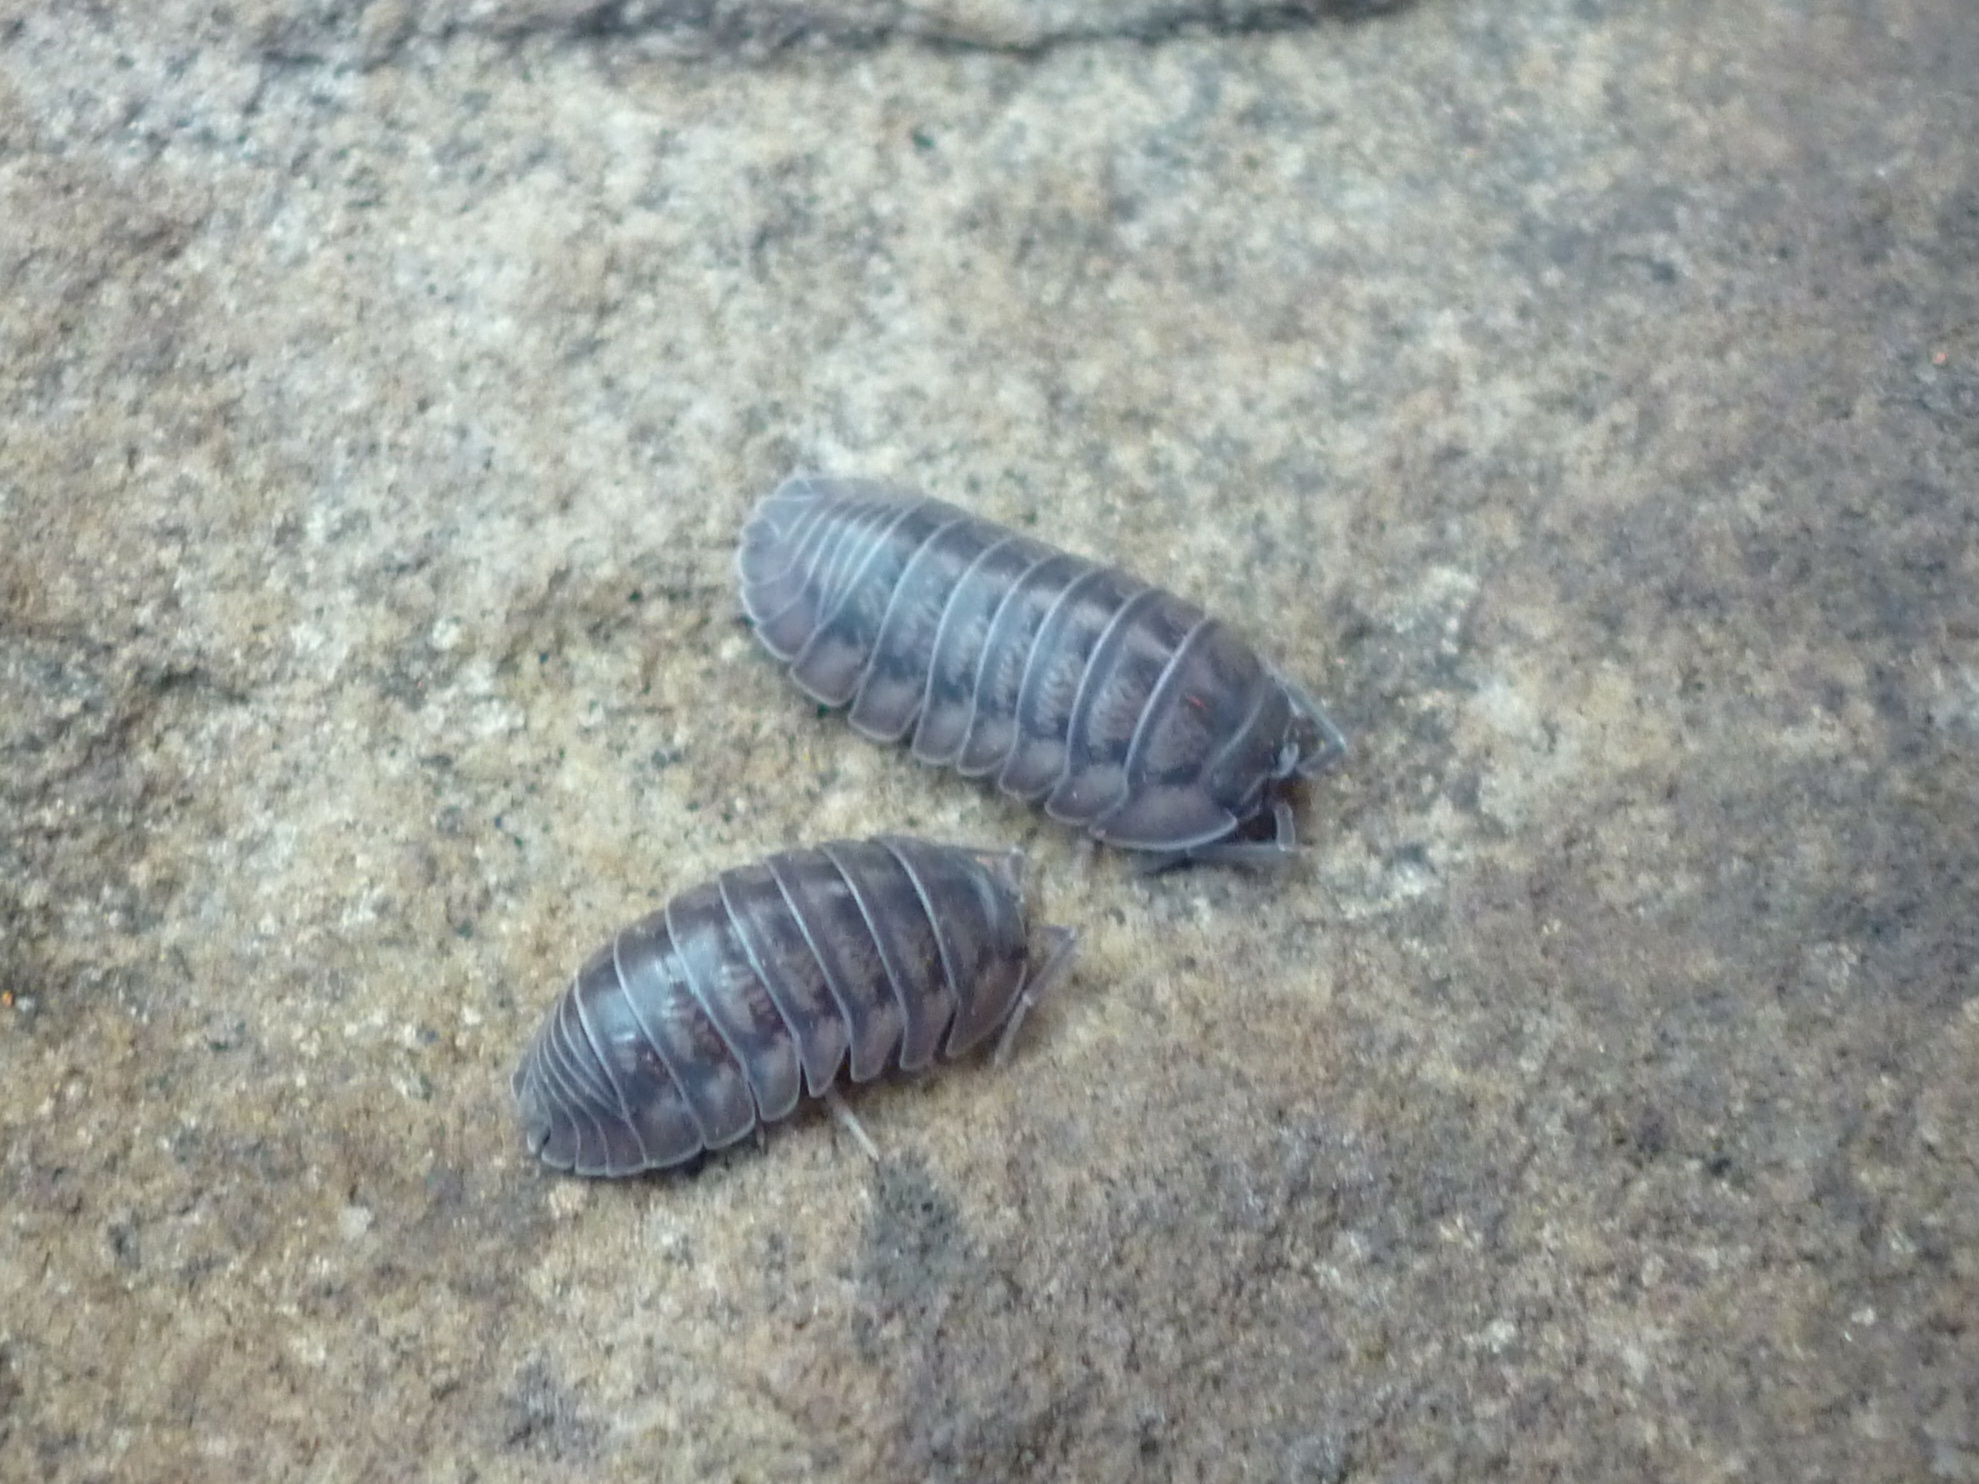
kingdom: Animalia
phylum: Arthropoda
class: Malacostraca
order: Isopoda
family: Armadillidiidae
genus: Armadillidium
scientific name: Armadillidium nasatum
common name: Isopod
